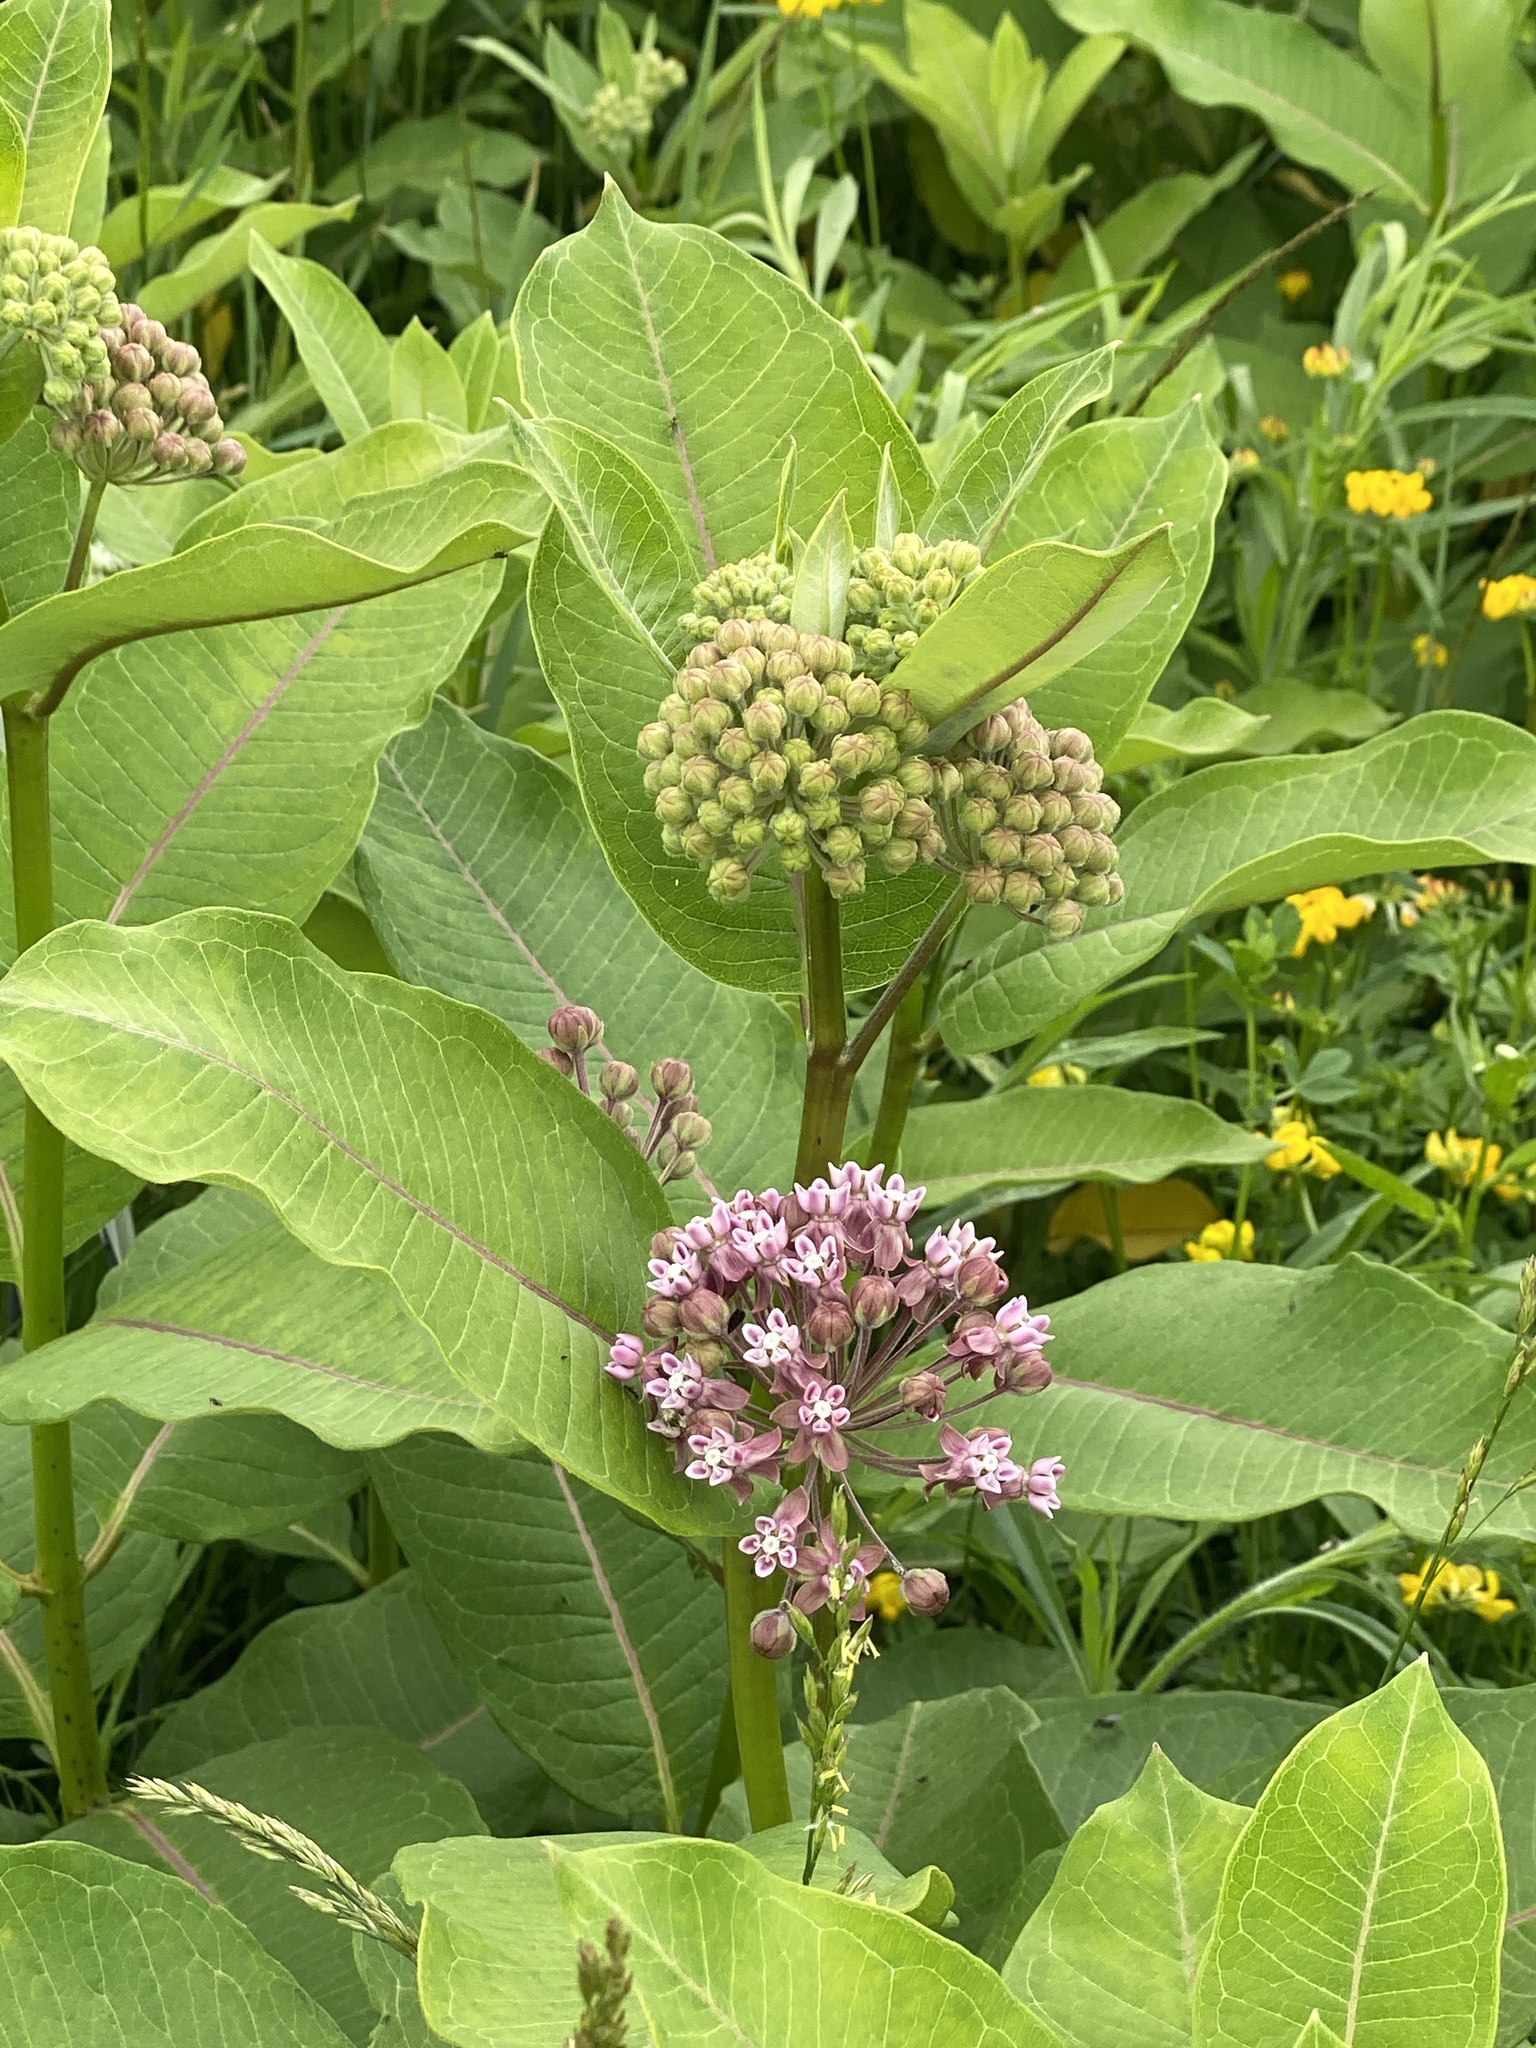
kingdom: Plantae
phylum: Tracheophyta
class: Magnoliopsida
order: Gentianales
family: Apocynaceae
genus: Asclepias
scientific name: Asclepias syriaca
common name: Common milkweed
